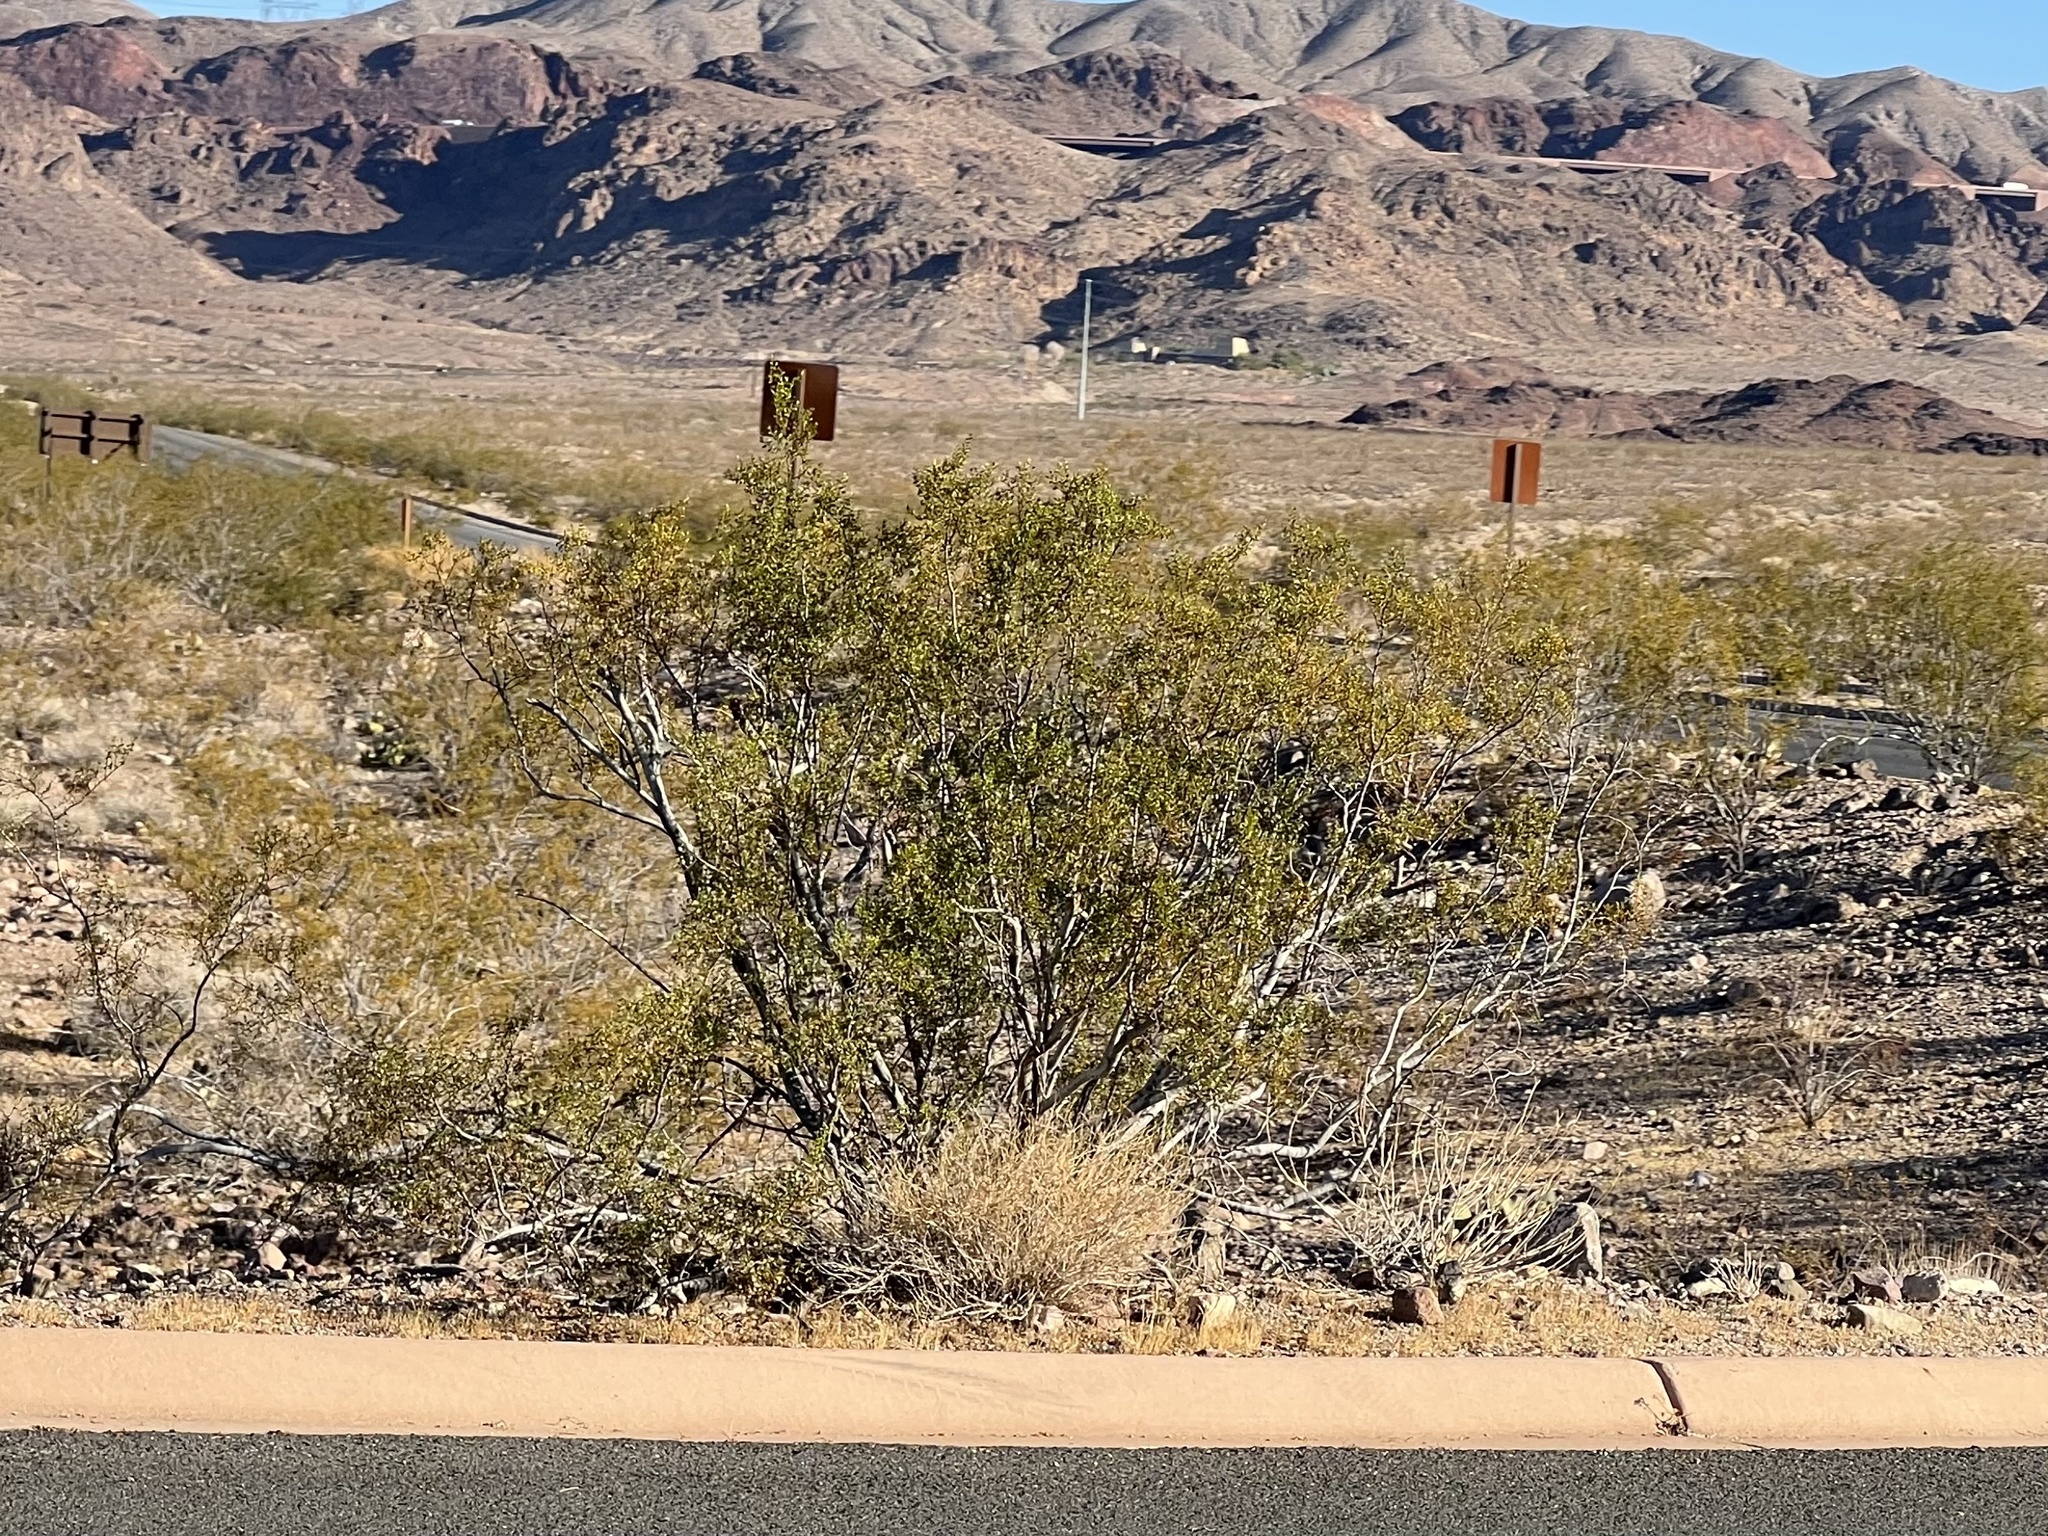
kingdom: Plantae
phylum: Tracheophyta
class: Magnoliopsida
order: Zygophyllales
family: Zygophyllaceae
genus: Larrea
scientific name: Larrea tridentata
